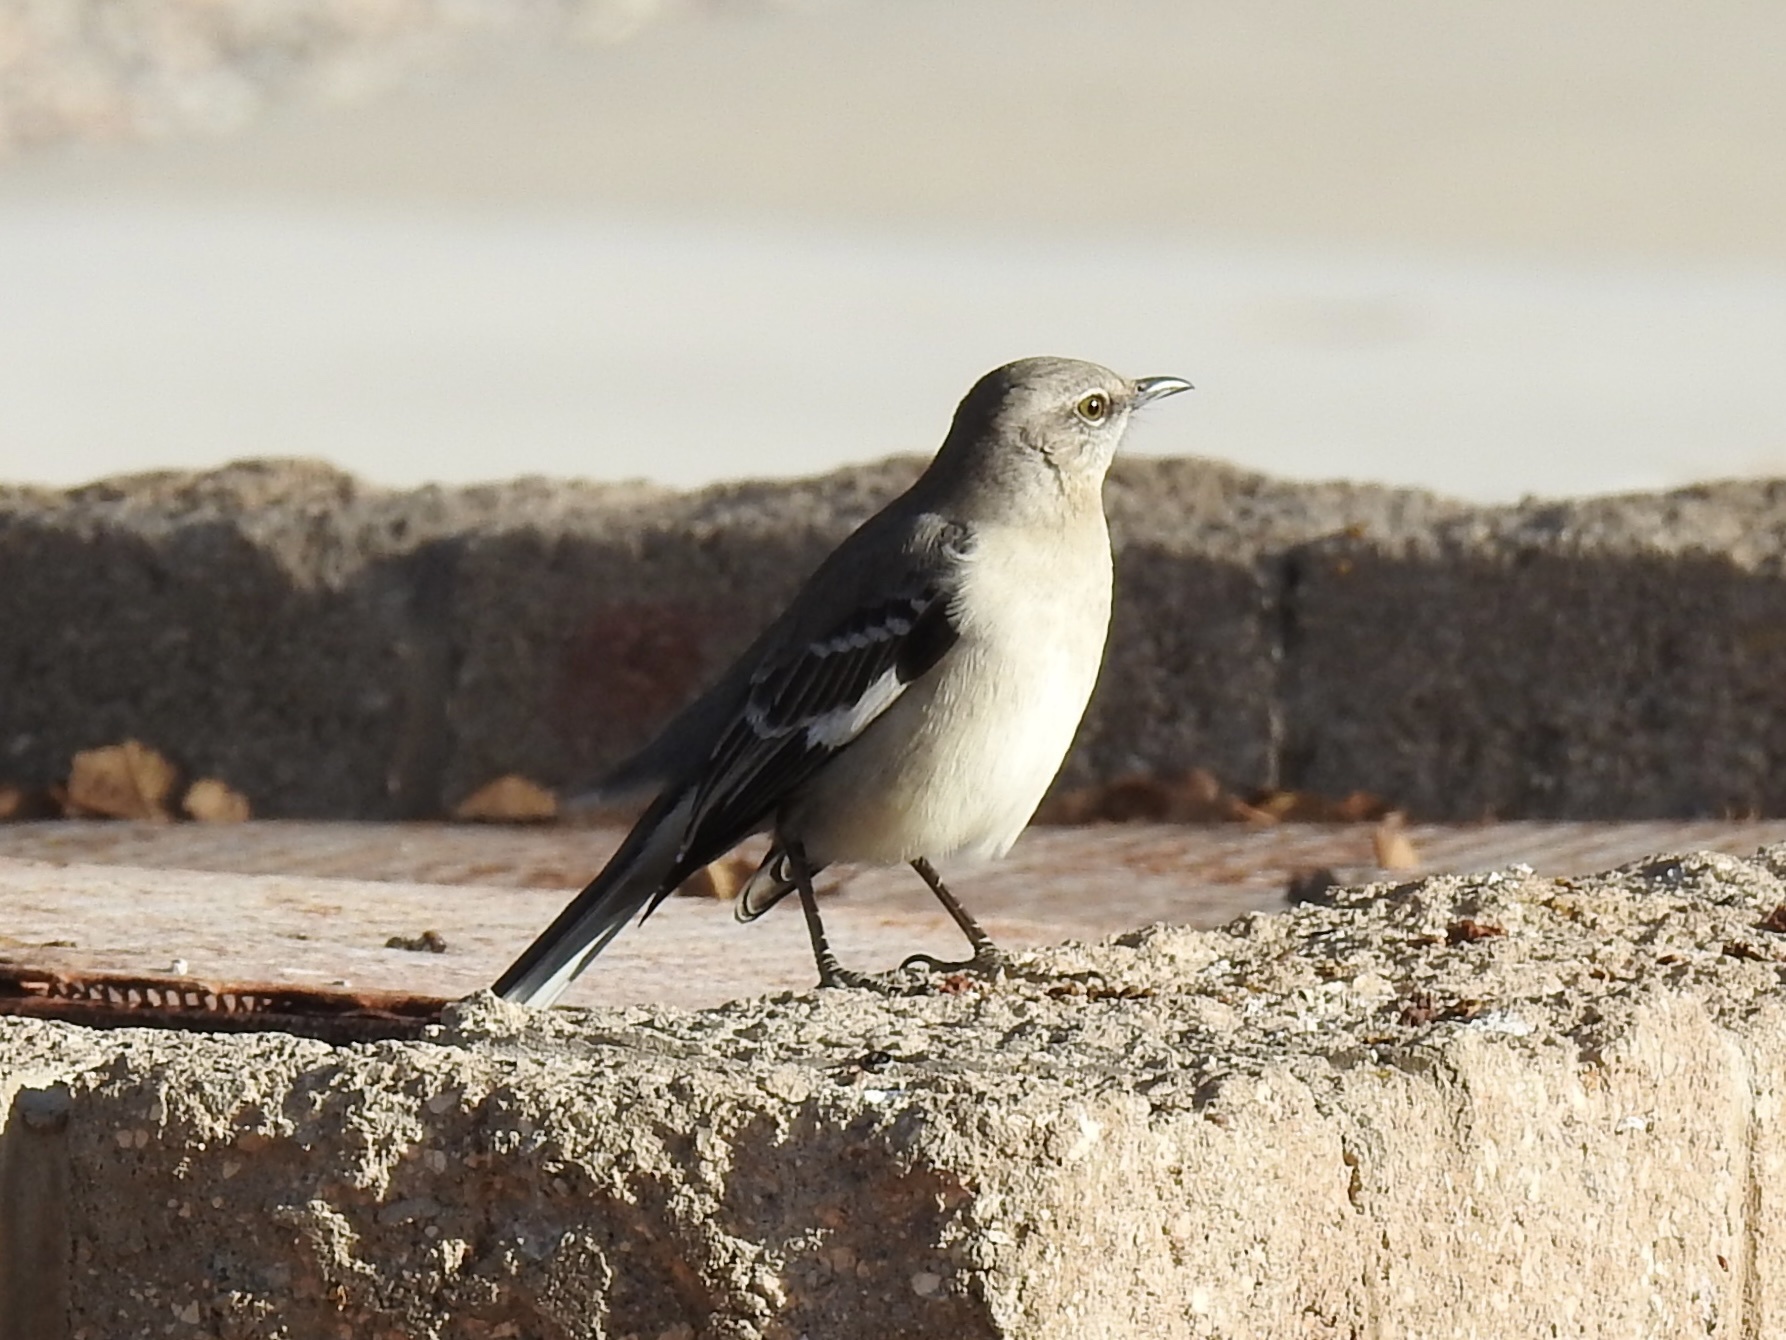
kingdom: Animalia
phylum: Chordata
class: Aves
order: Passeriformes
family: Mimidae
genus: Mimus
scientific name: Mimus polyglottos
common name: Northern mockingbird
